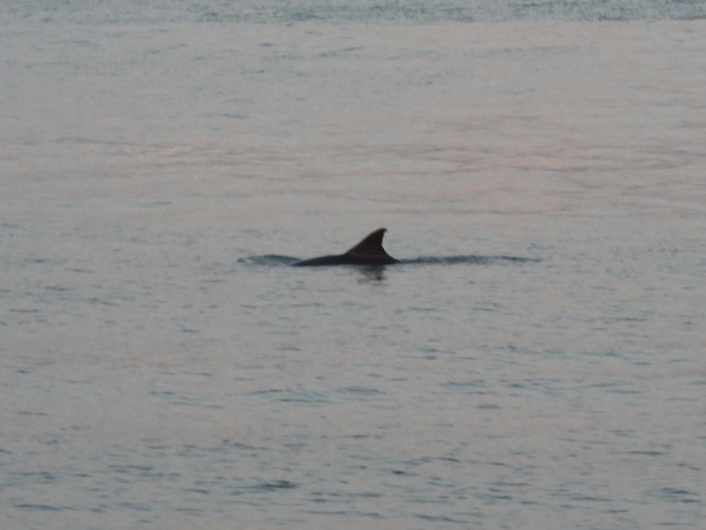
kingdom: Animalia
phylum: Chordata
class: Mammalia
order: Cetacea
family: Delphinidae
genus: Tursiops
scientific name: Tursiops truncatus
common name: Bottlenose dolphin
